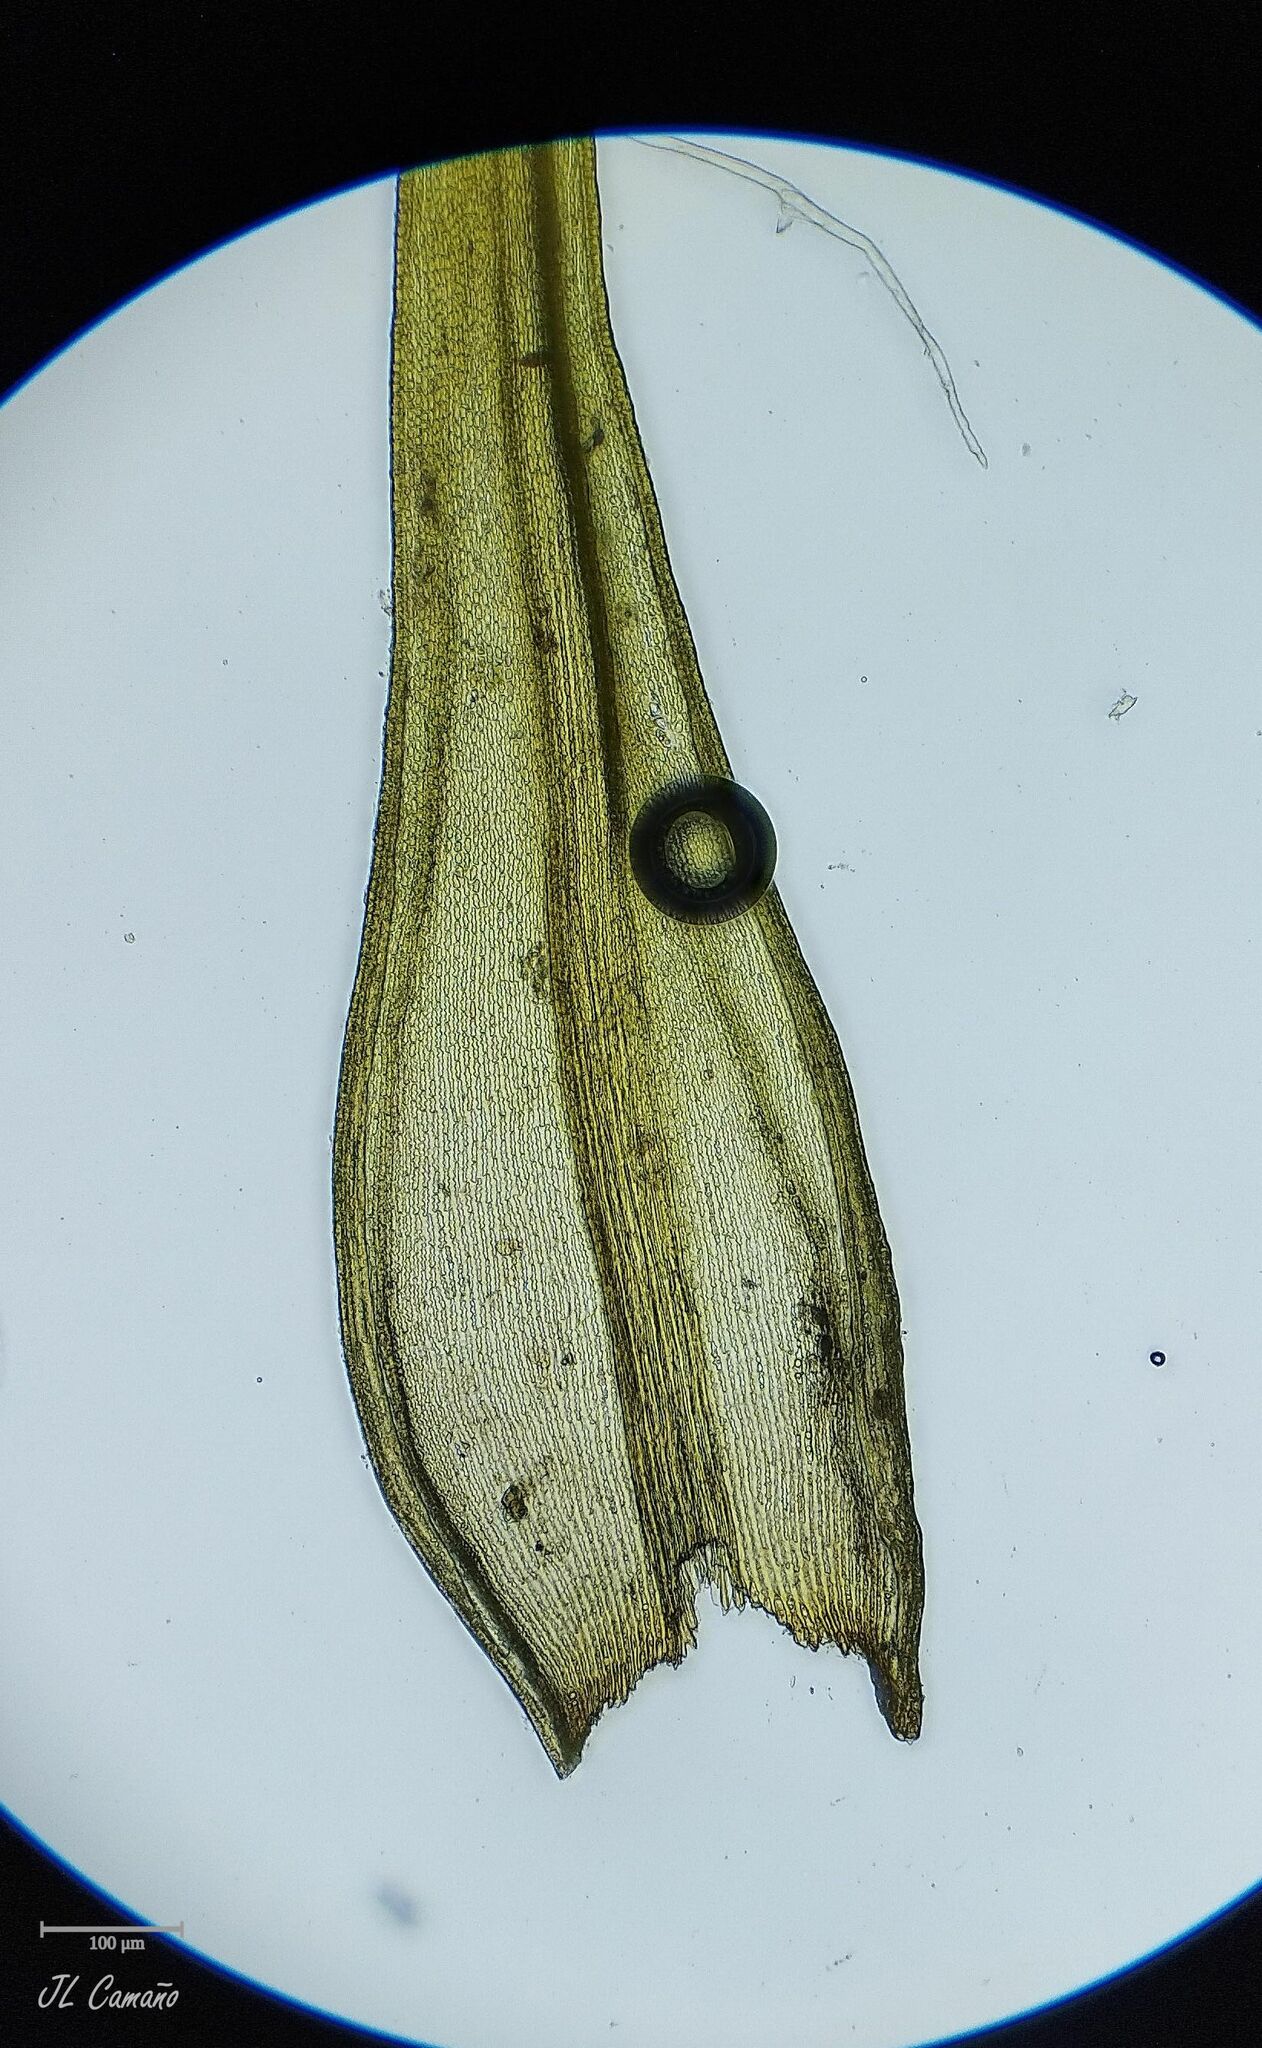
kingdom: Plantae
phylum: Bryophyta
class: Bryopsida
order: Grimmiales
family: Grimmiaceae
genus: Bucklandiella
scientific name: Bucklandiella heterosticha
